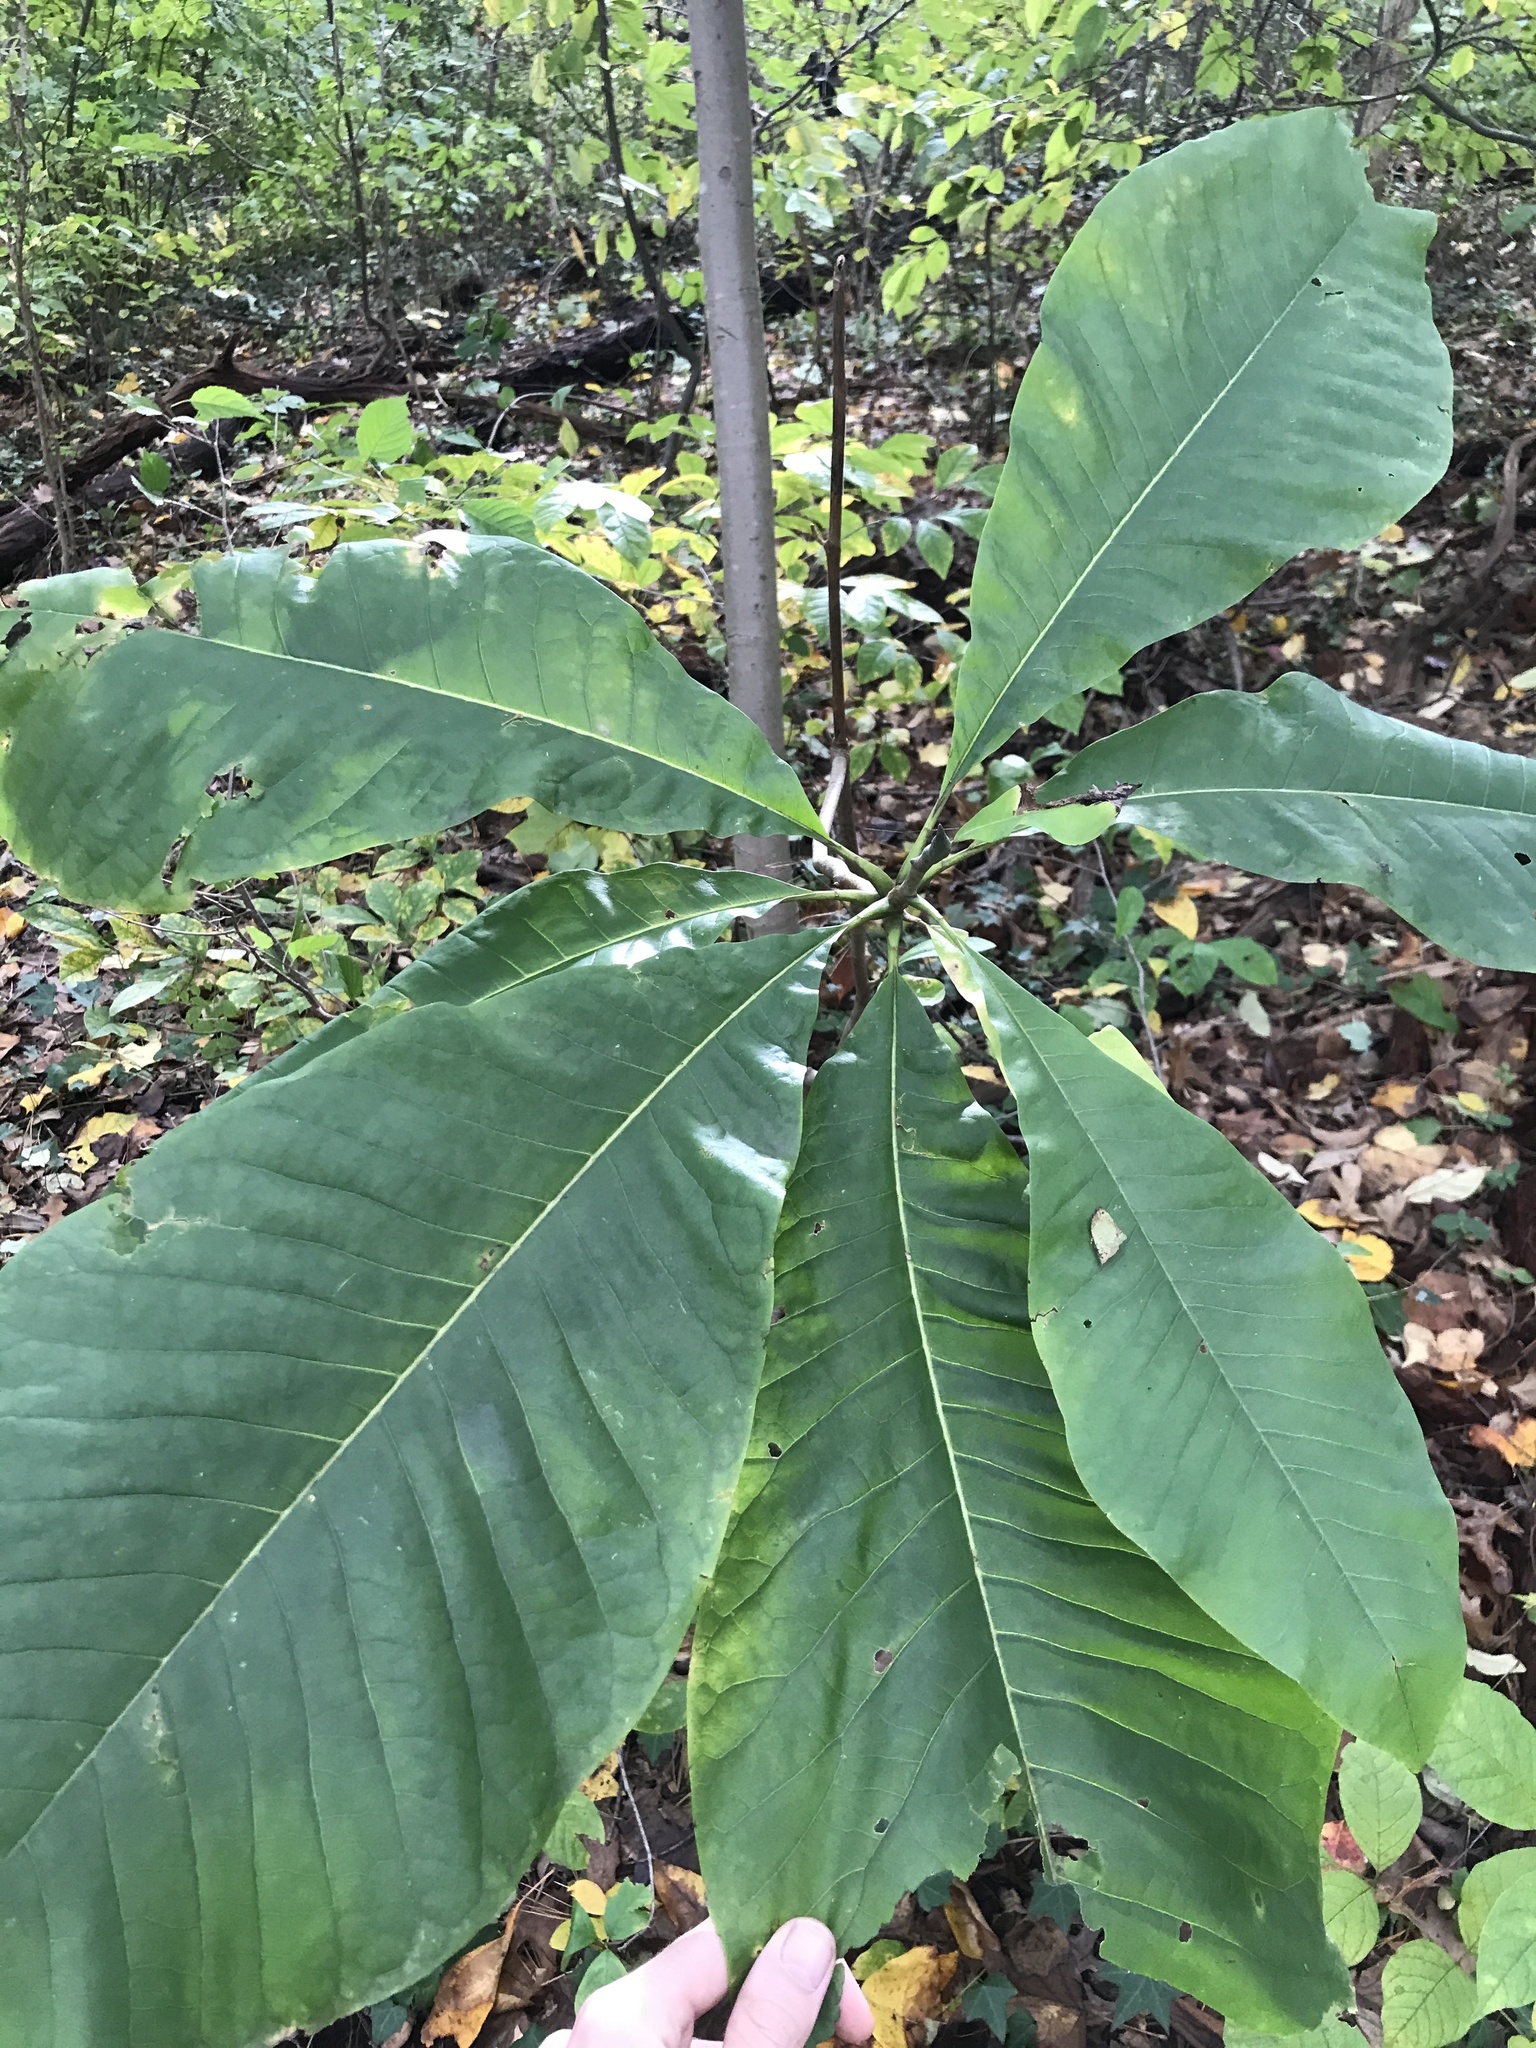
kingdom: Plantae
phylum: Tracheophyta
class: Magnoliopsida
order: Magnoliales
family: Magnoliaceae
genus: Magnolia
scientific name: Magnolia tripetala
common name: Umbrella magnolia
